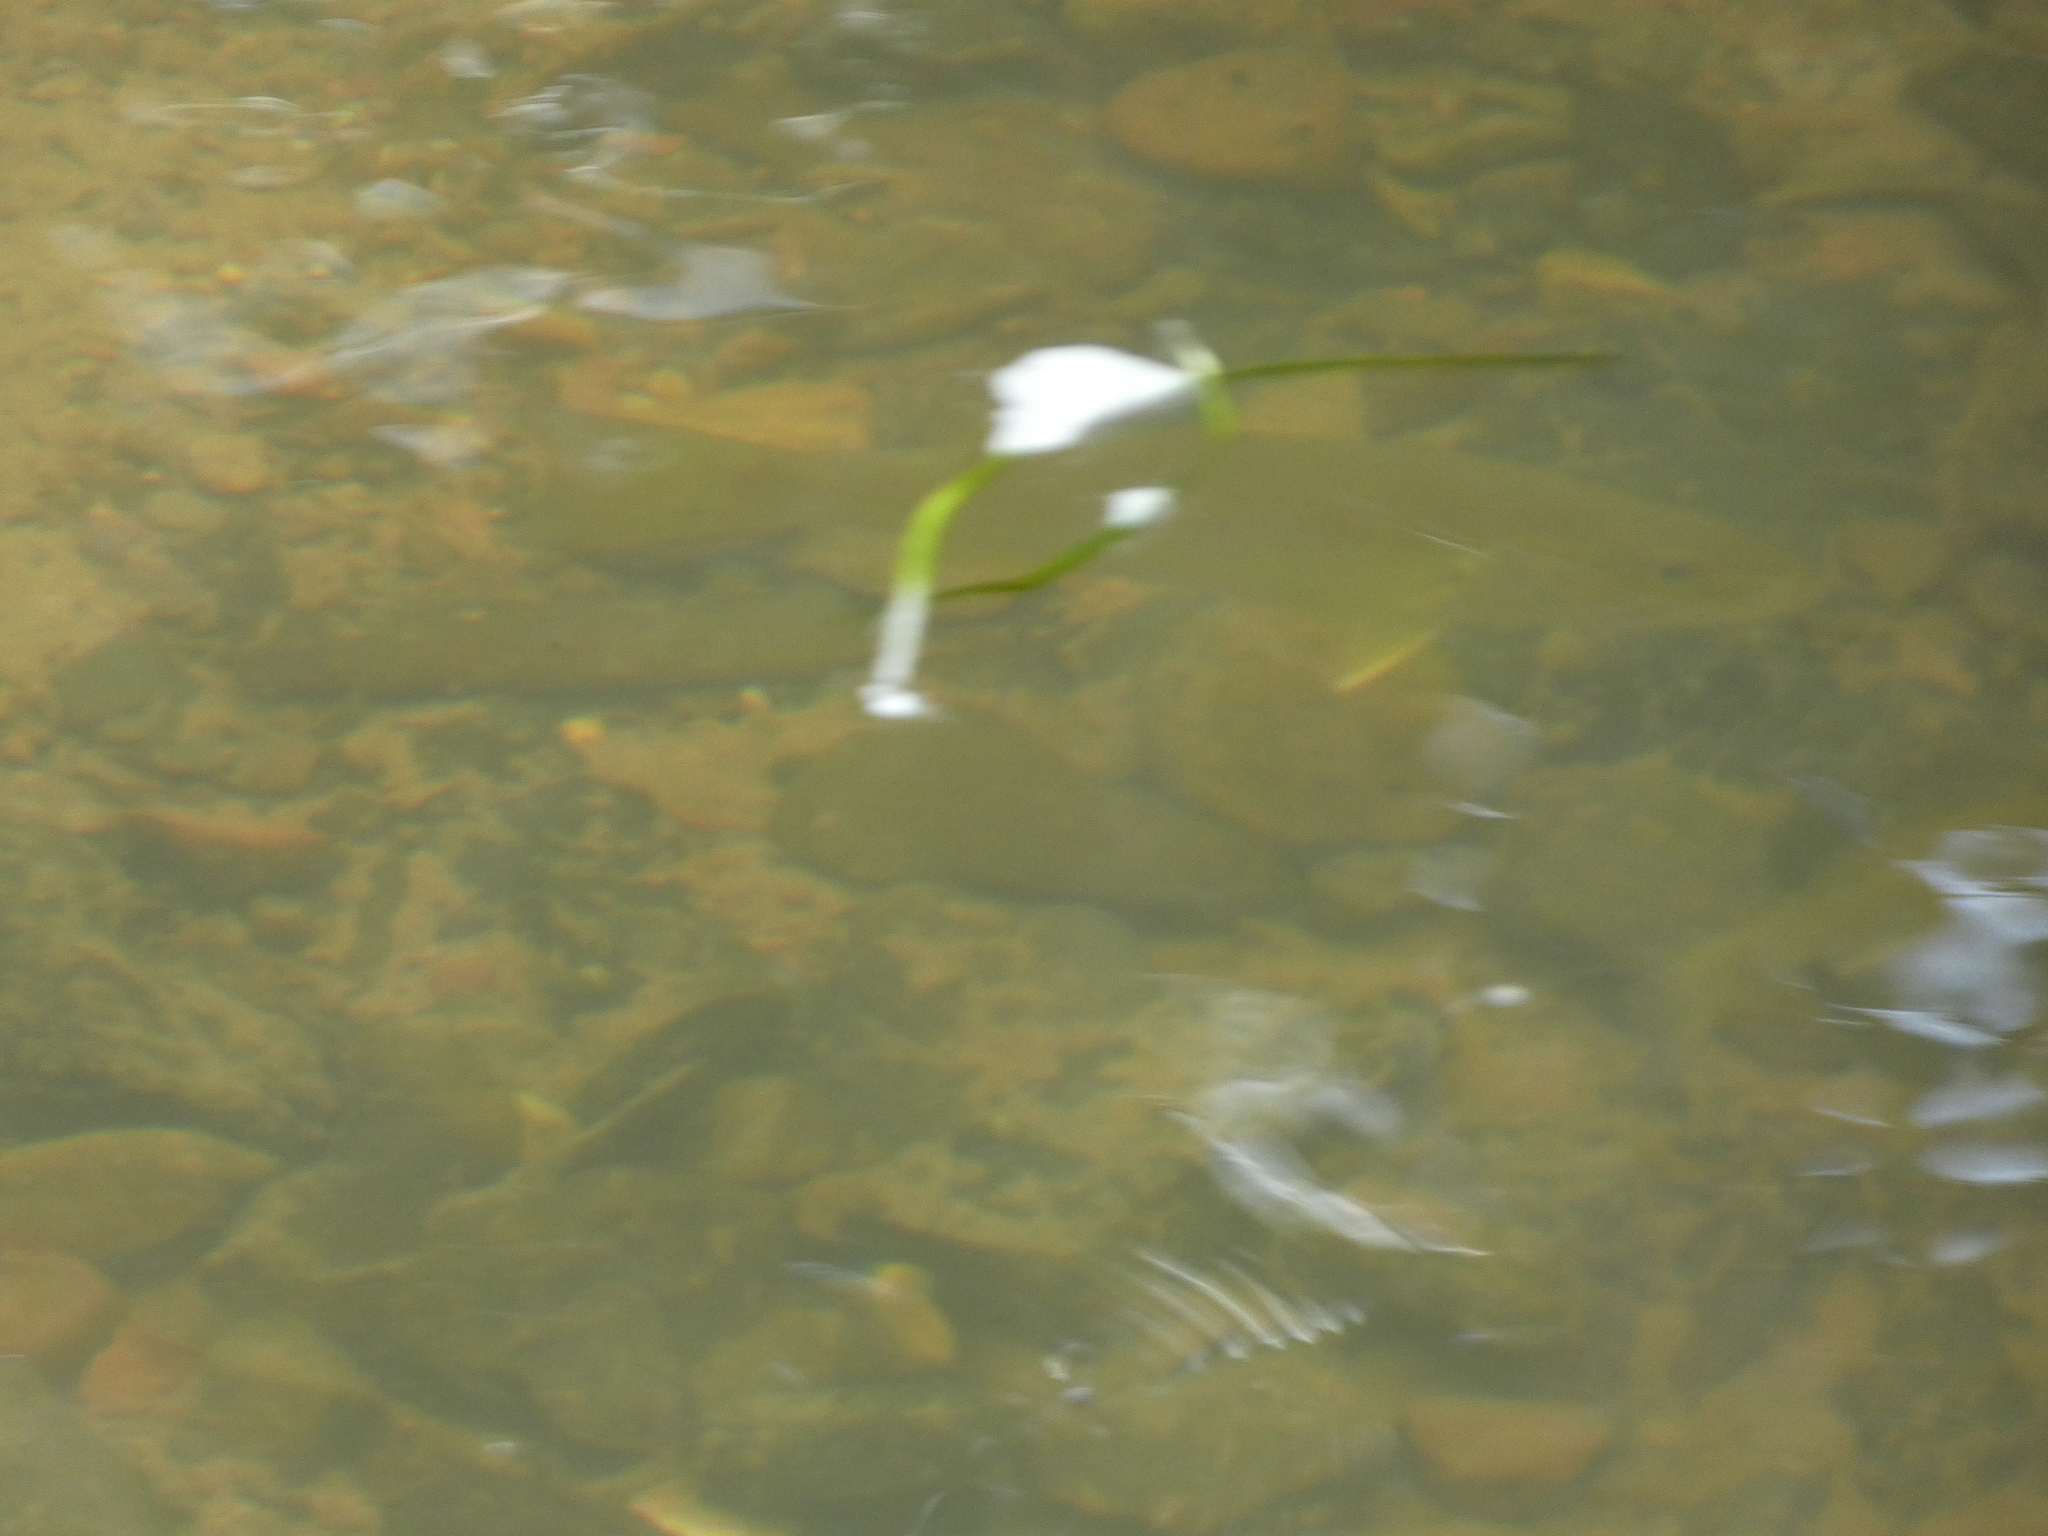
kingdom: Animalia
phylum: Chordata
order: Perciformes
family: Centrarchidae
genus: Micropterus
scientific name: Micropterus dolomieu
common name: Smallmouth bass
